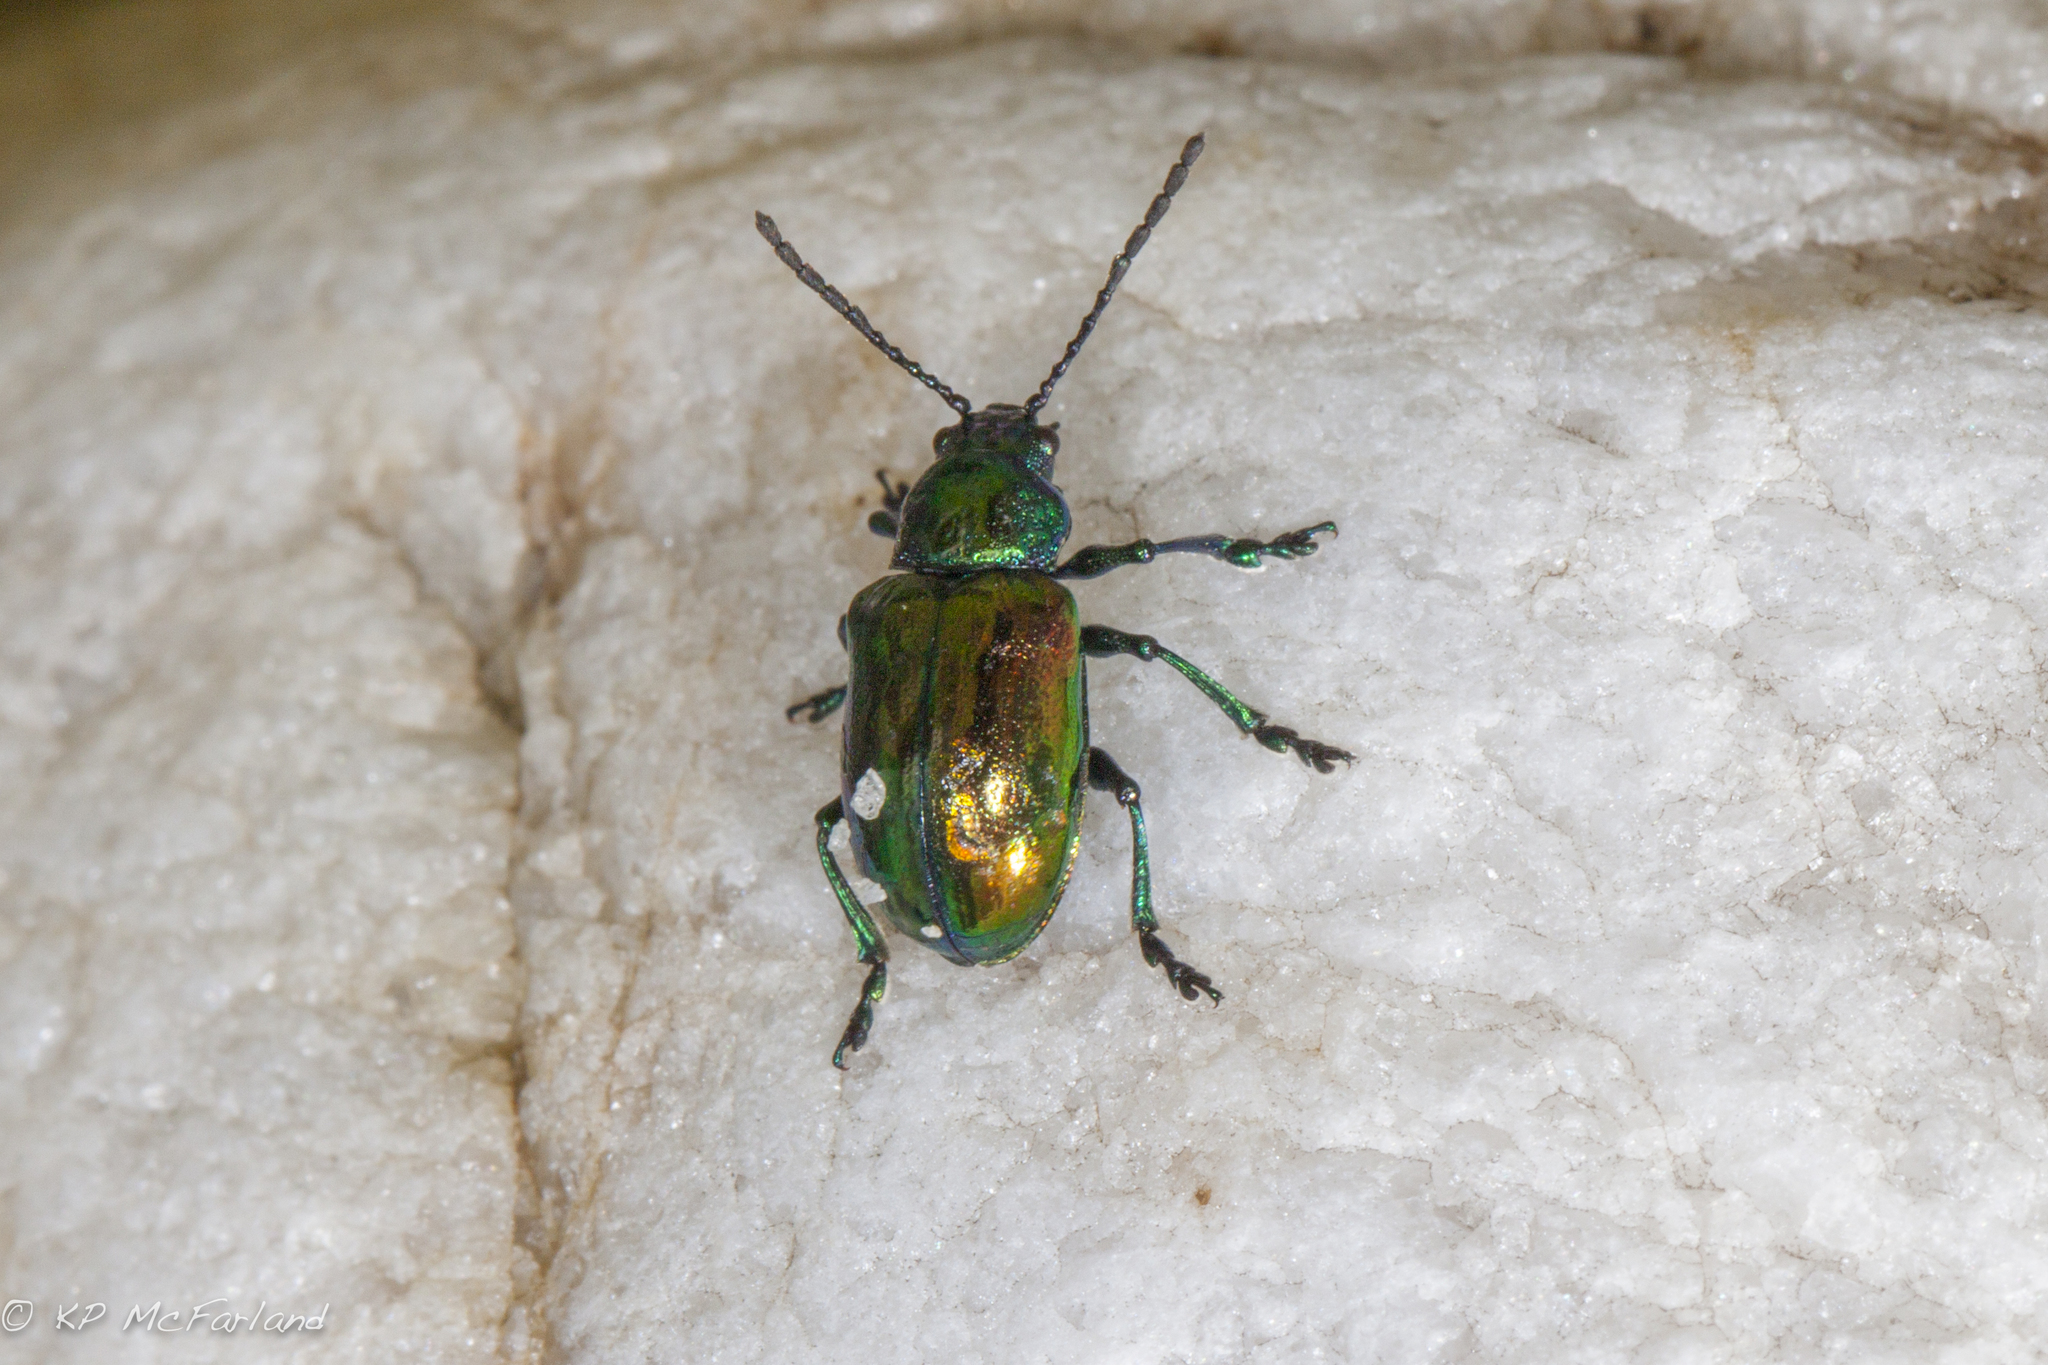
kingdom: Animalia
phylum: Arthropoda
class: Insecta
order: Coleoptera
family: Chrysomelidae
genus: Chrysochus
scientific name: Chrysochus auratus
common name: Dogbane leaf beetle
